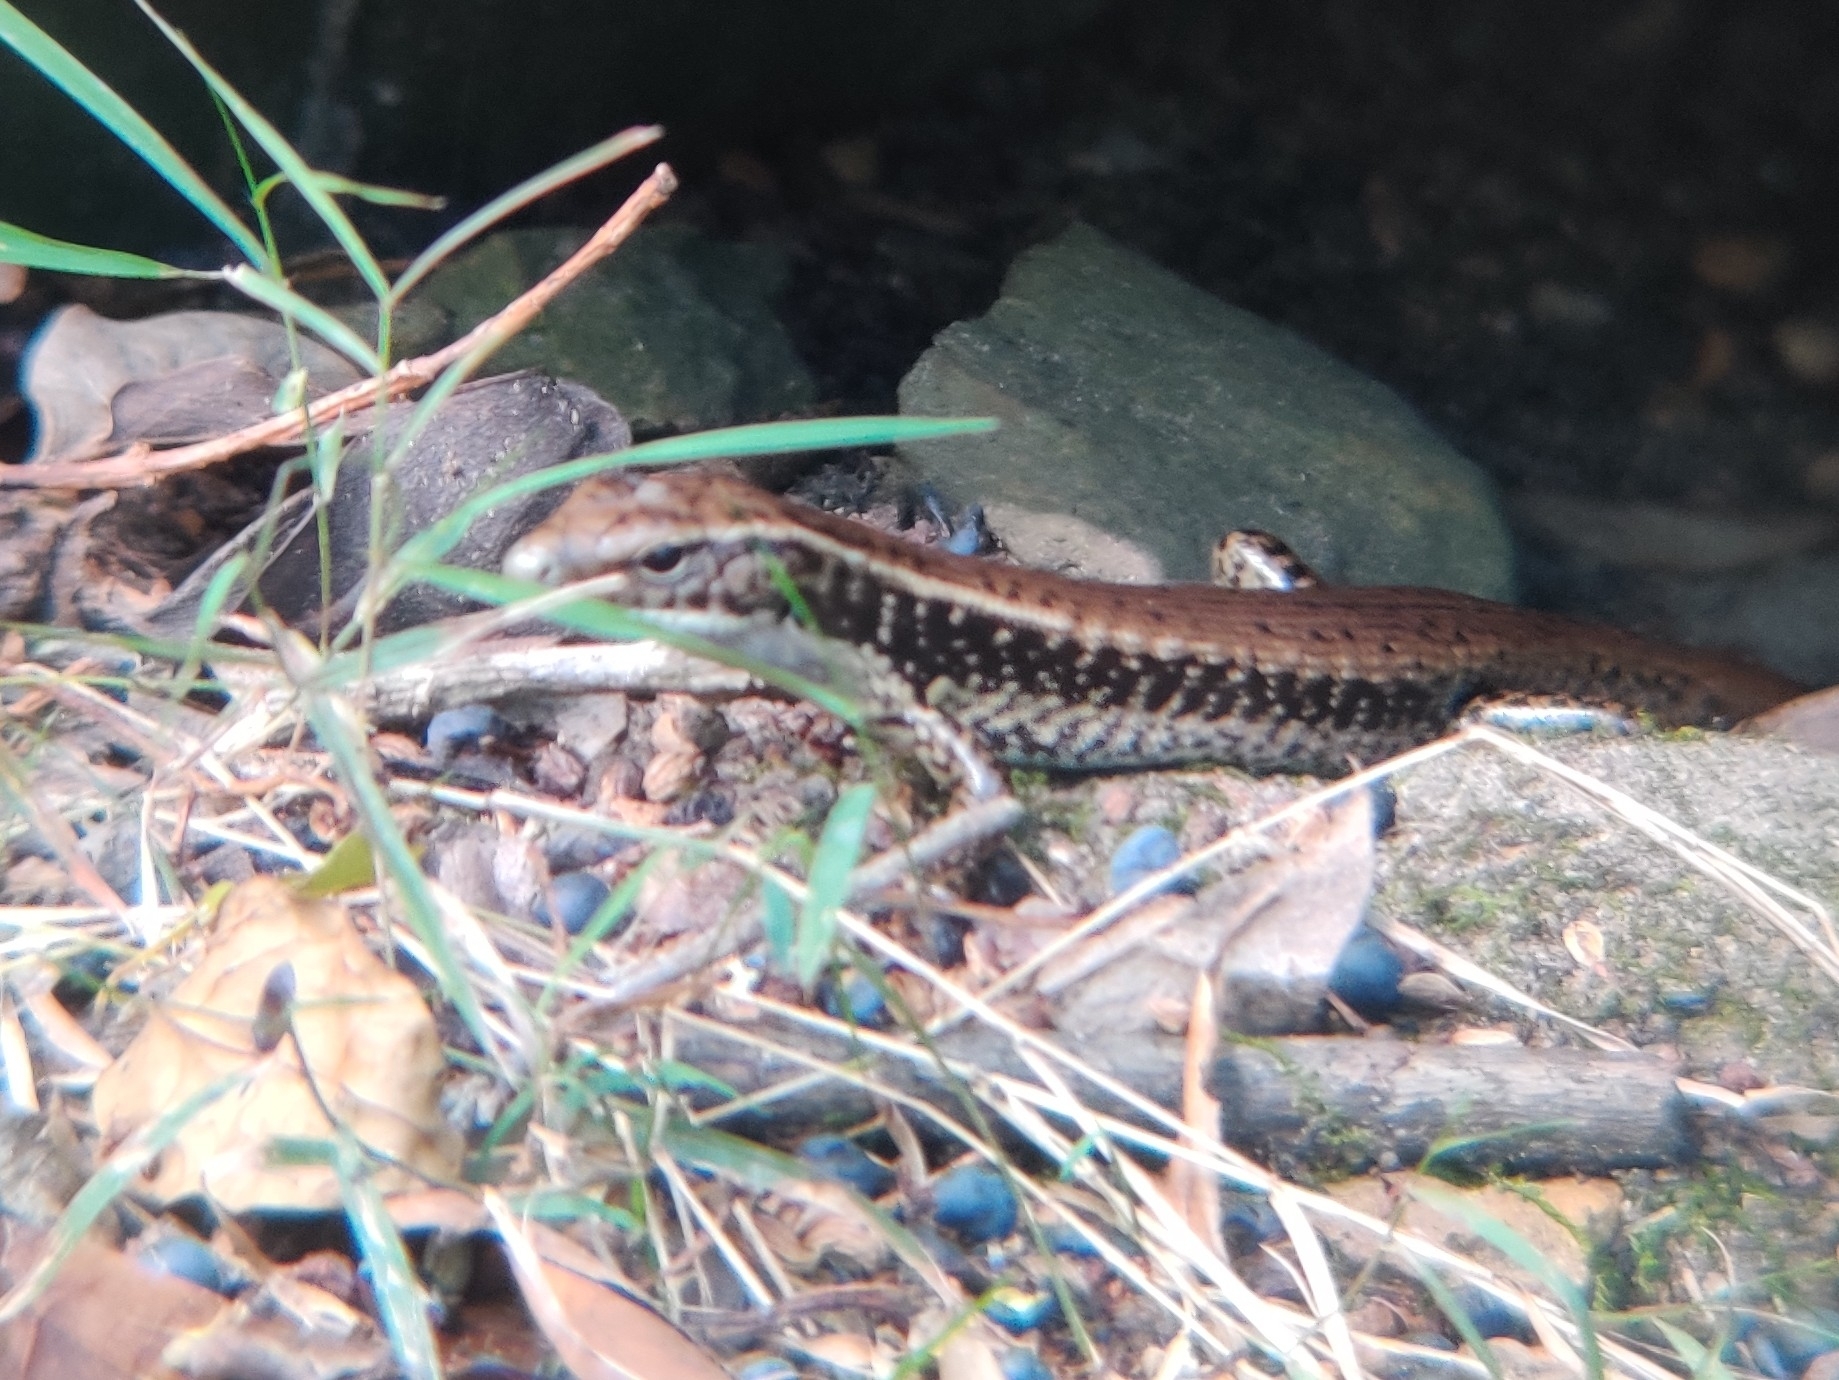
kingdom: Animalia
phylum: Chordata
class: Squamata
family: Scincidae
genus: Eulamprus
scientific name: Eulamprus quoyii
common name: Eastern water skink
